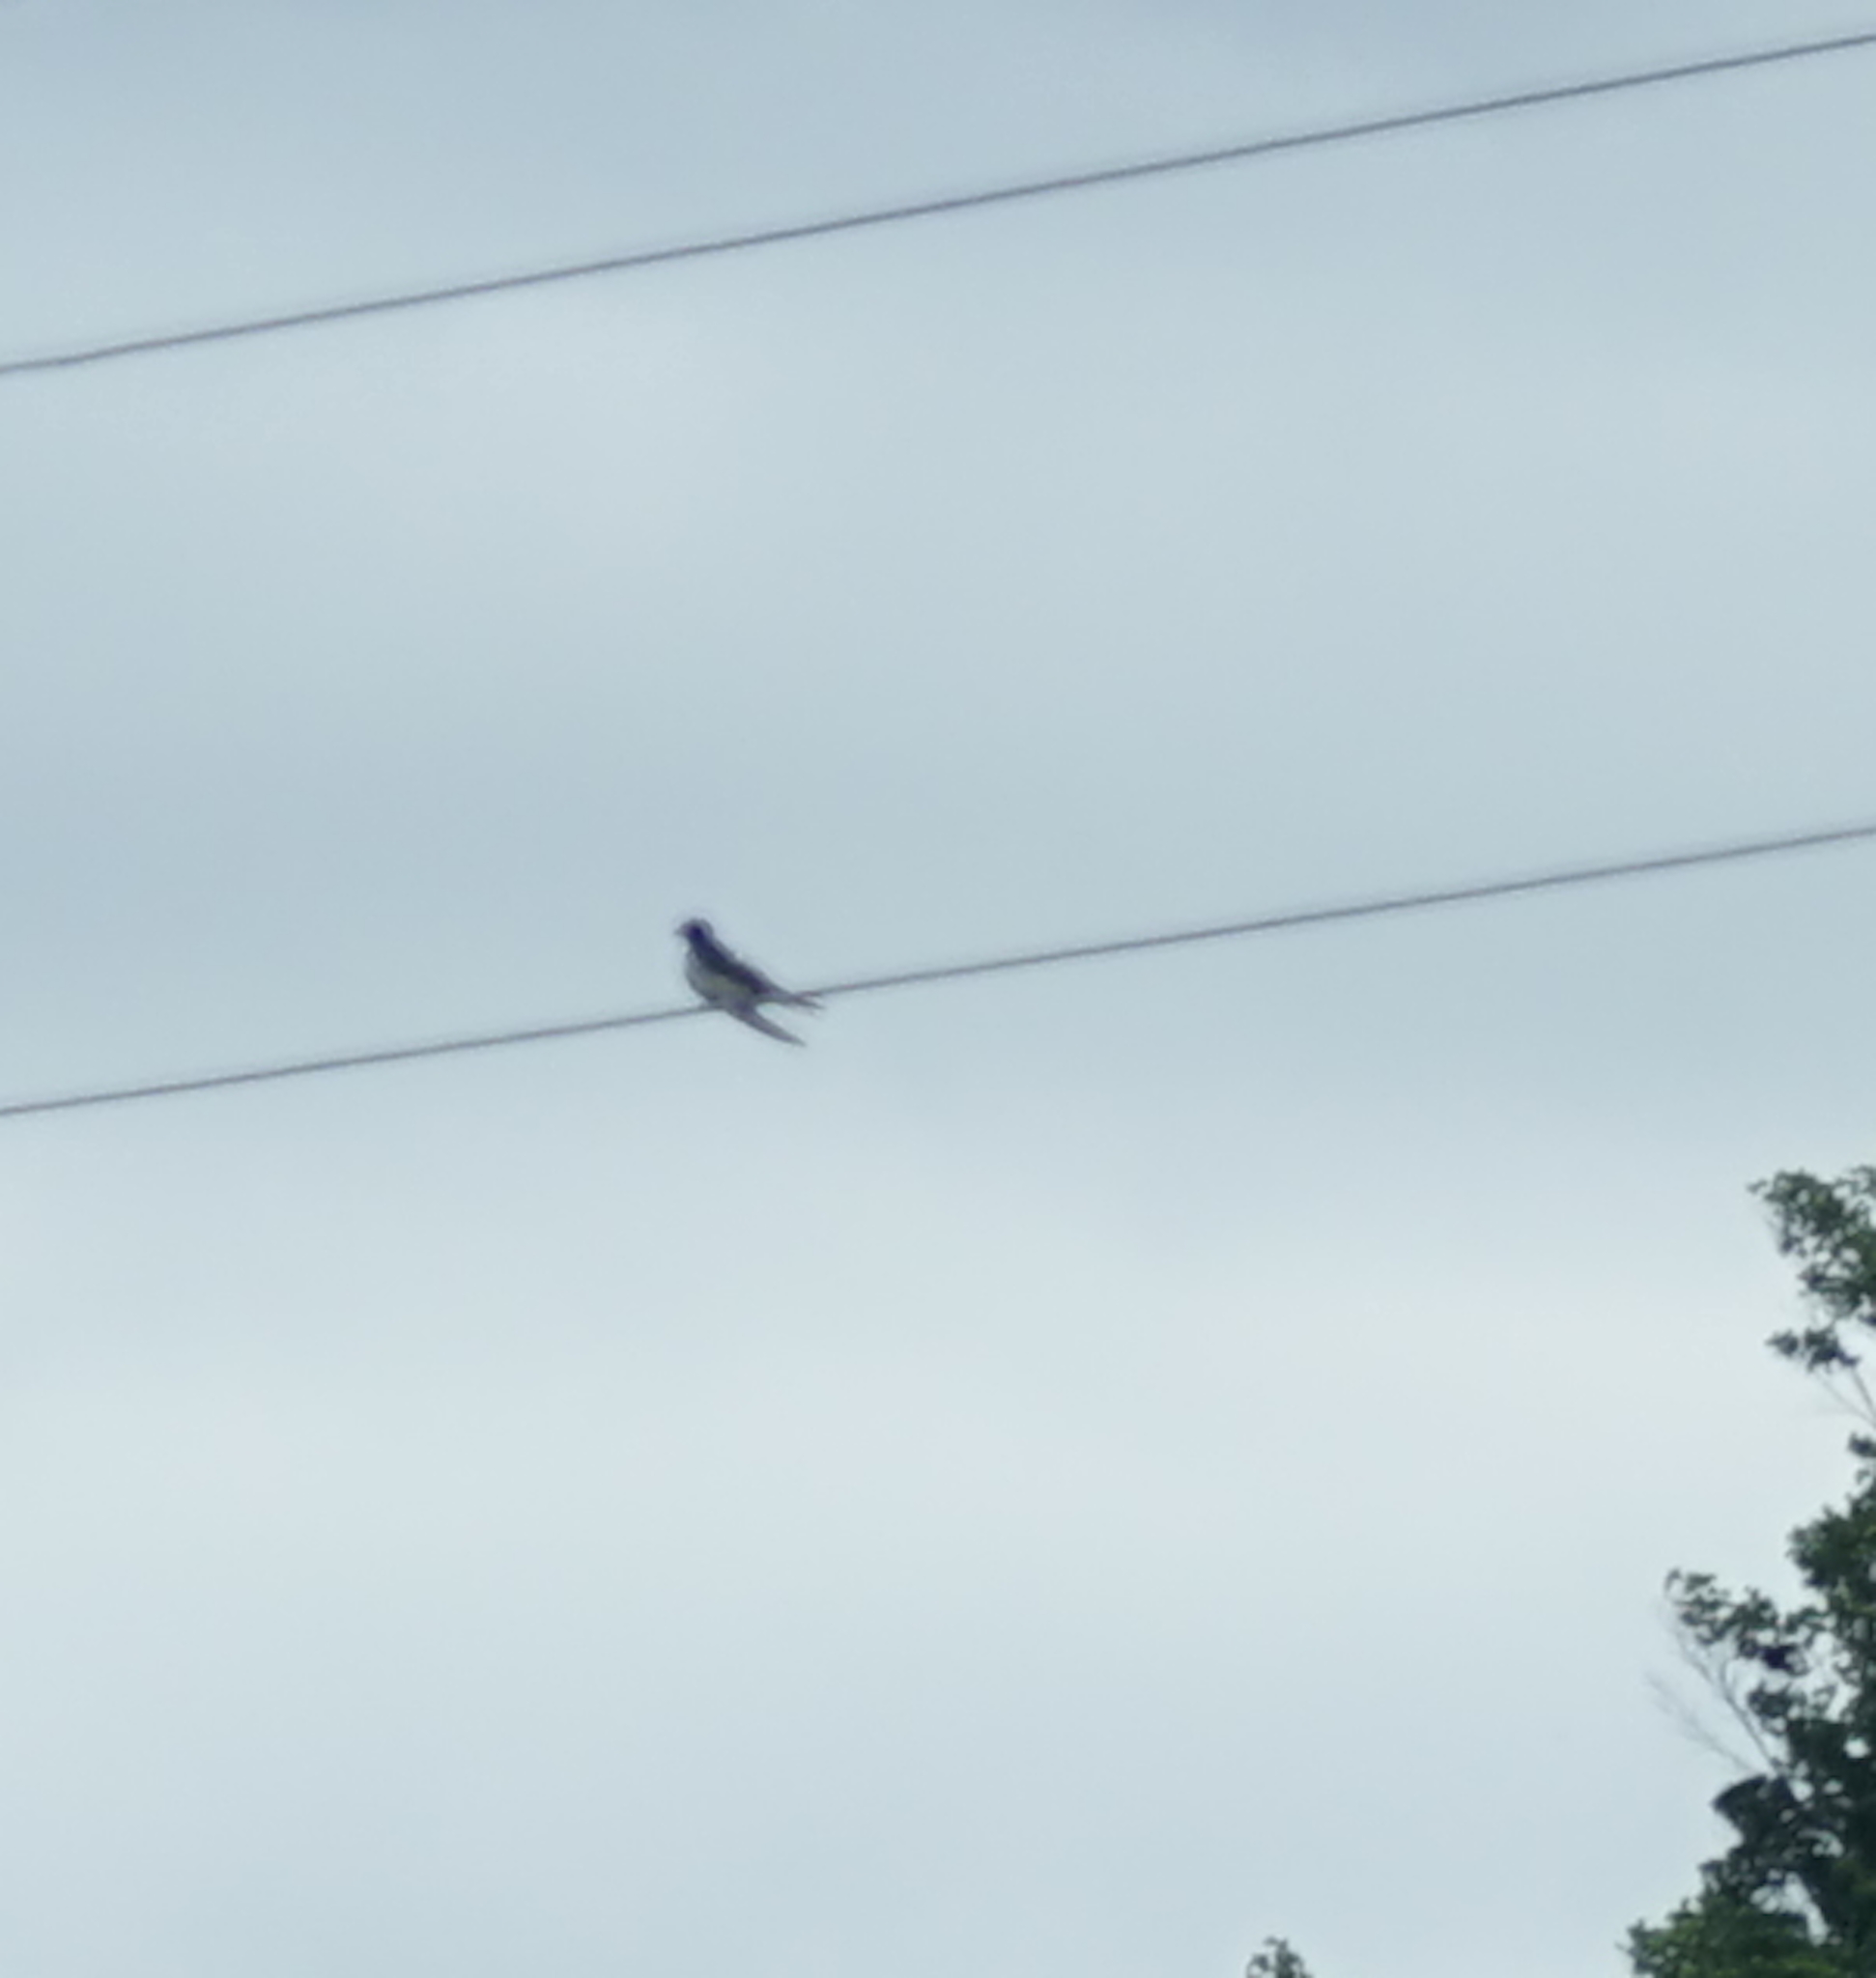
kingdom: Animalia
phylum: Chordata
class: Aves
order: Passeriformes
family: Hirundinidae
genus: Hirundo
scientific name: Hirundo rustica
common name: Barn swallow
